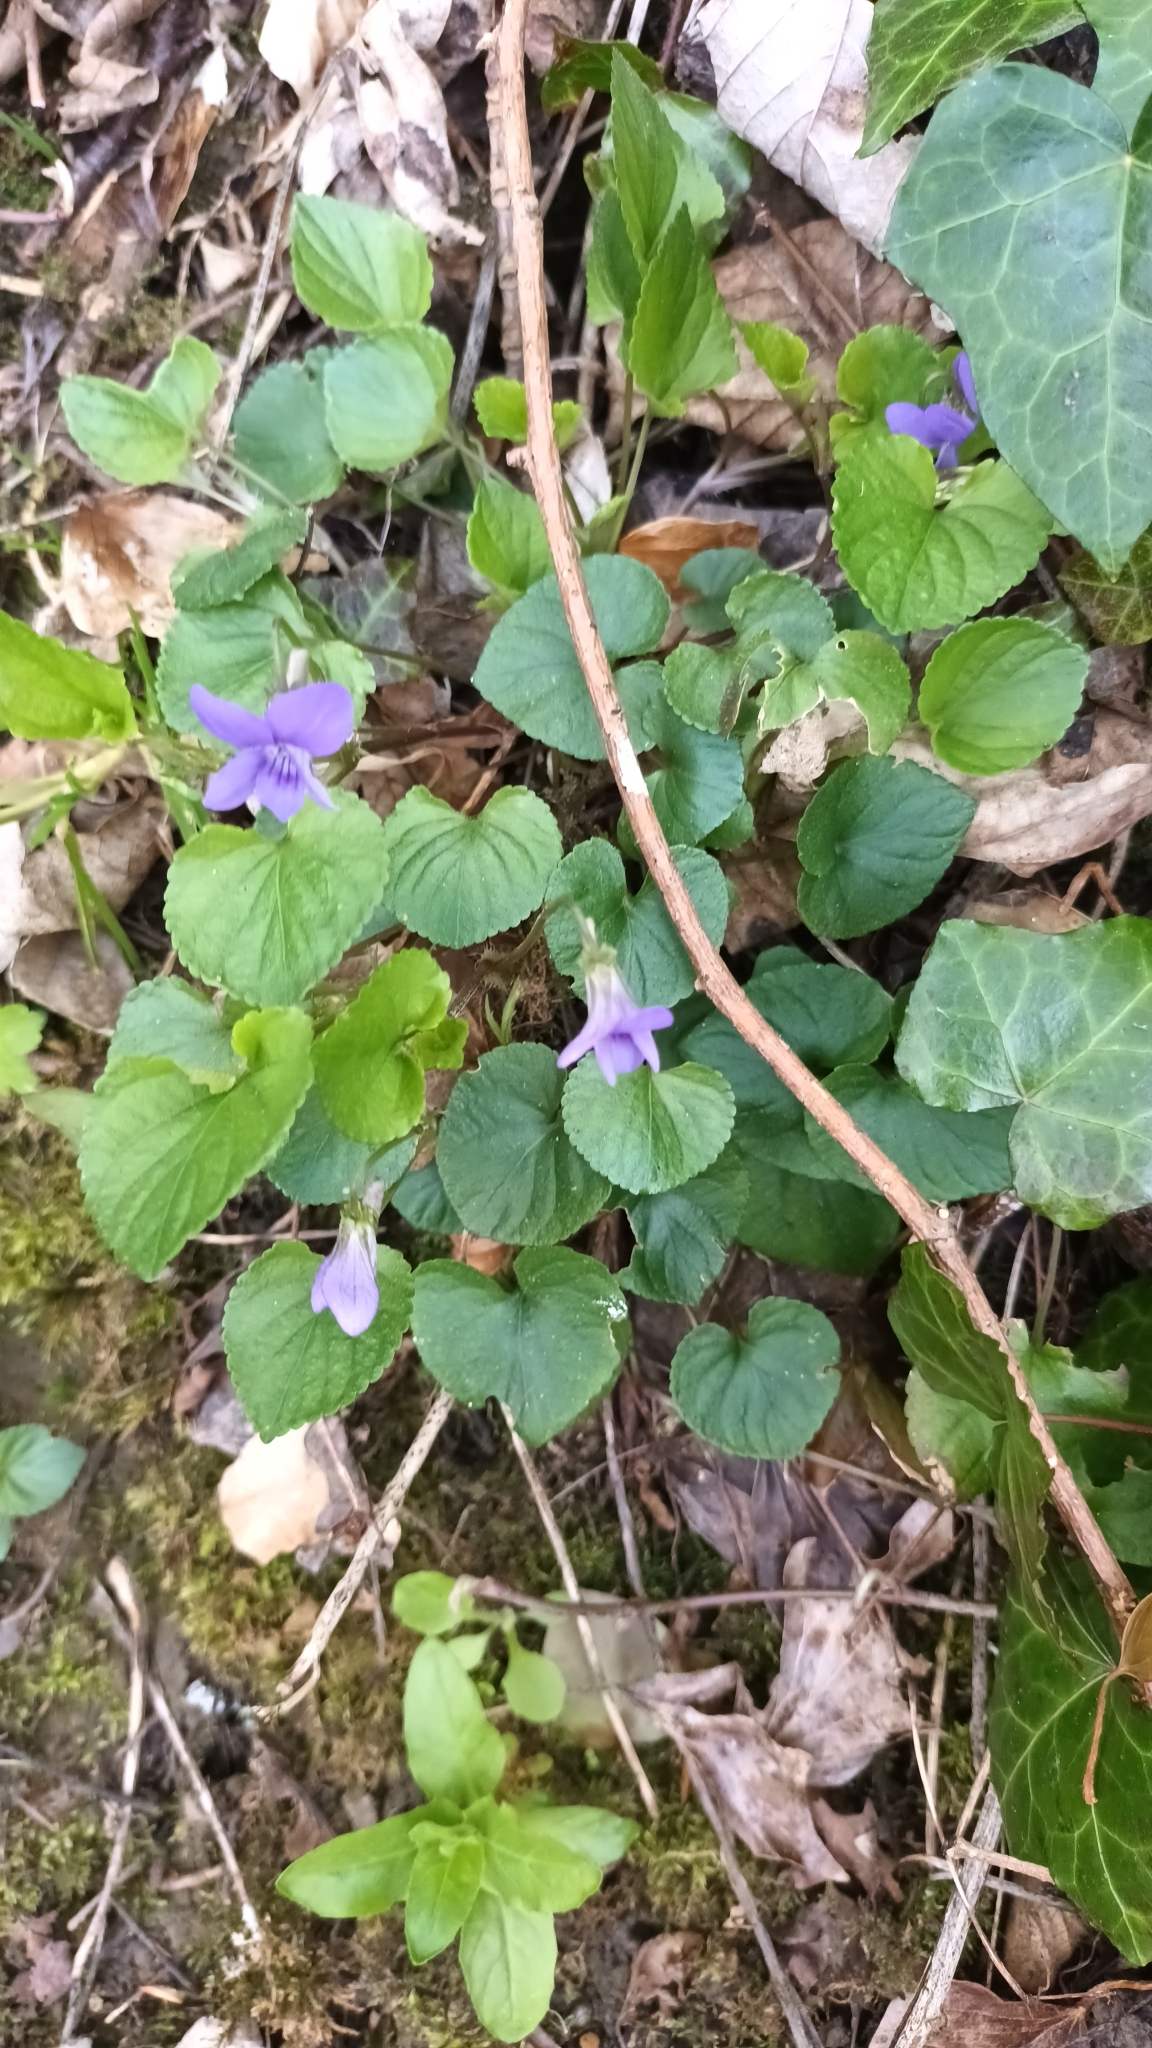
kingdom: Plantae
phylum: Tracheophyta
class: Magnoliopsida
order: Malpighiales
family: Violaceae
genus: Viola
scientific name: Viola riviniana
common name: Common dog-violet
